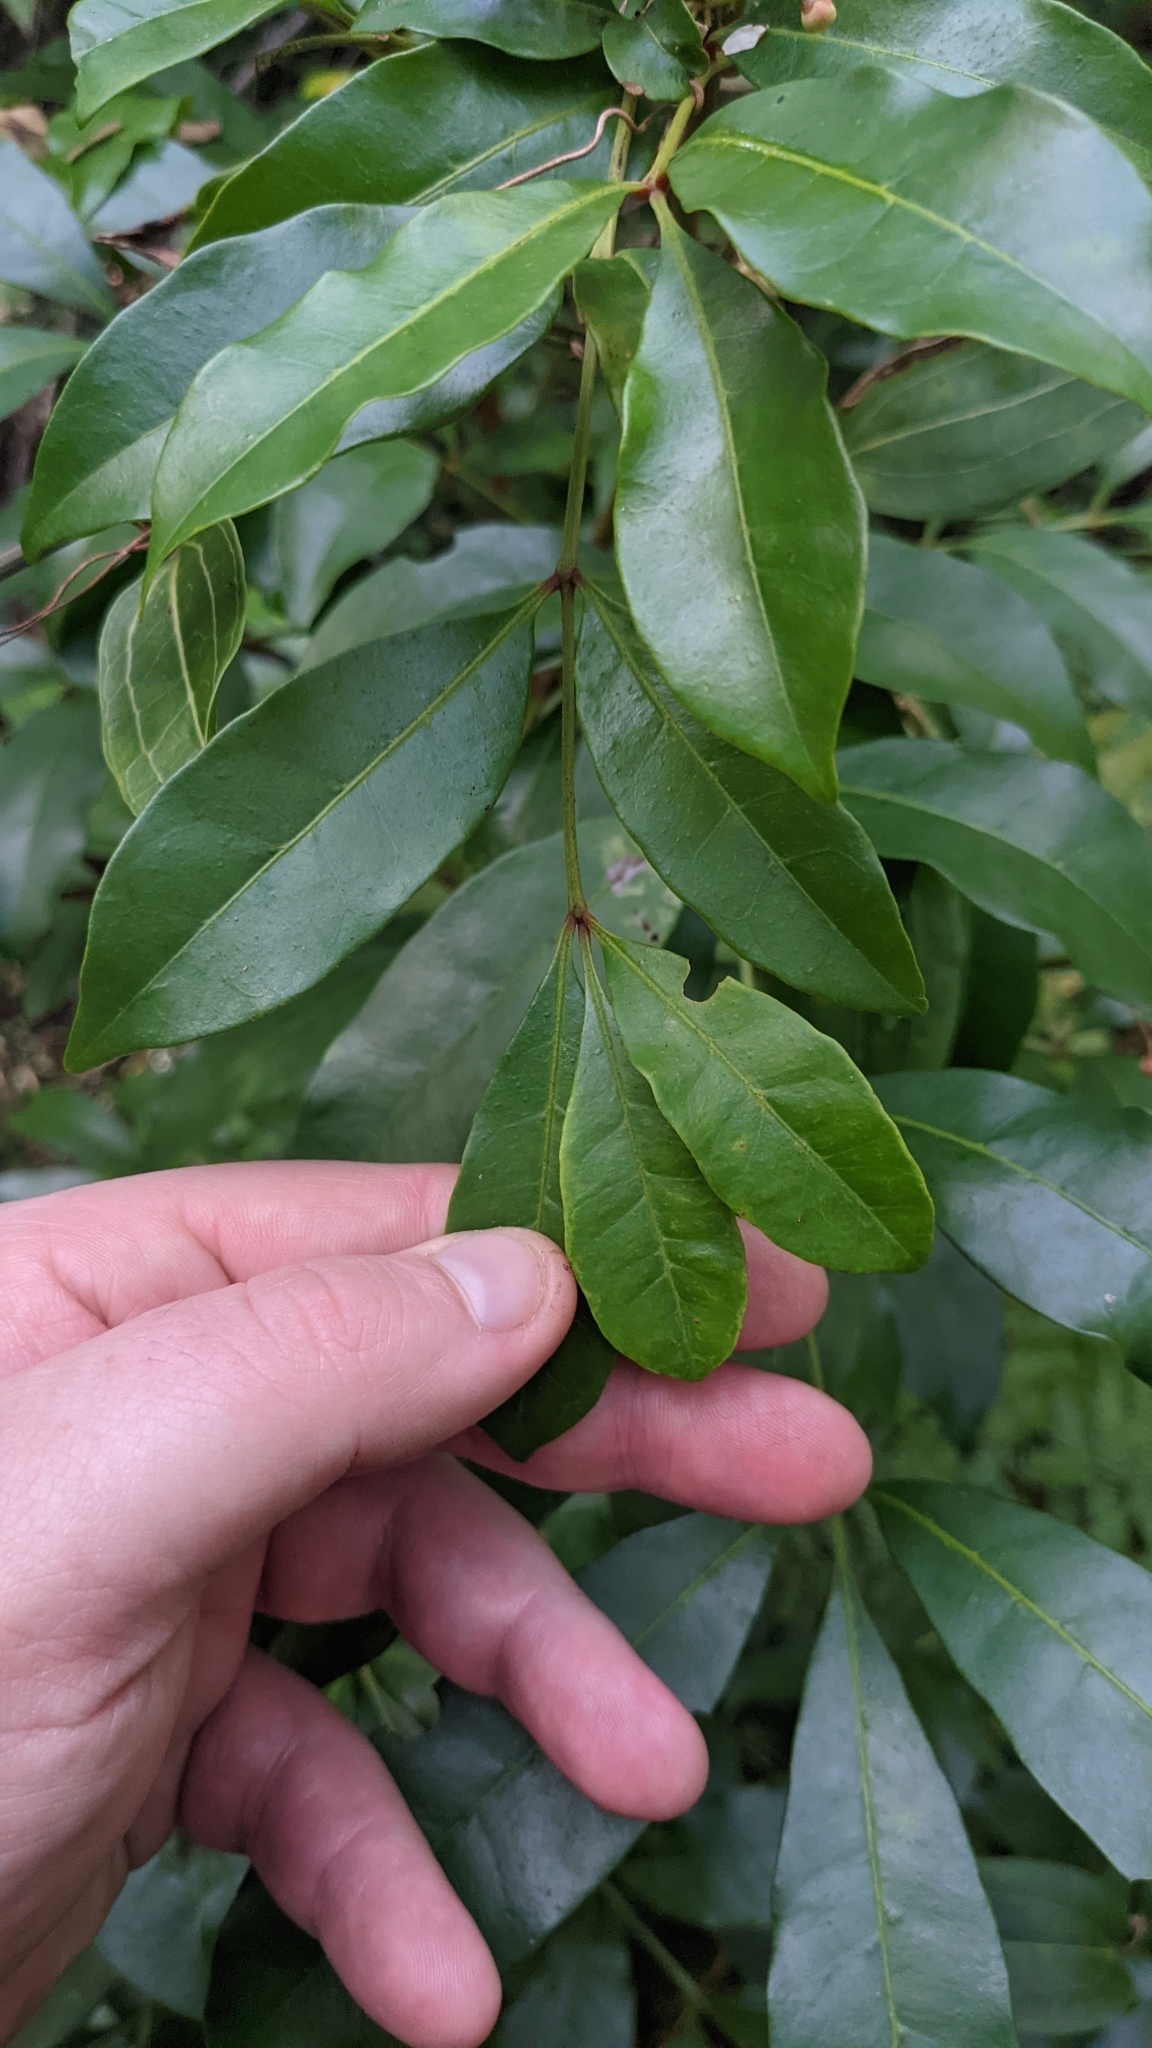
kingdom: Plantae
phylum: Tracheophyta
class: Magnoliopsida
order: Sapindales
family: Meliaceae
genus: Synoum
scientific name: Synoum glandulosum
